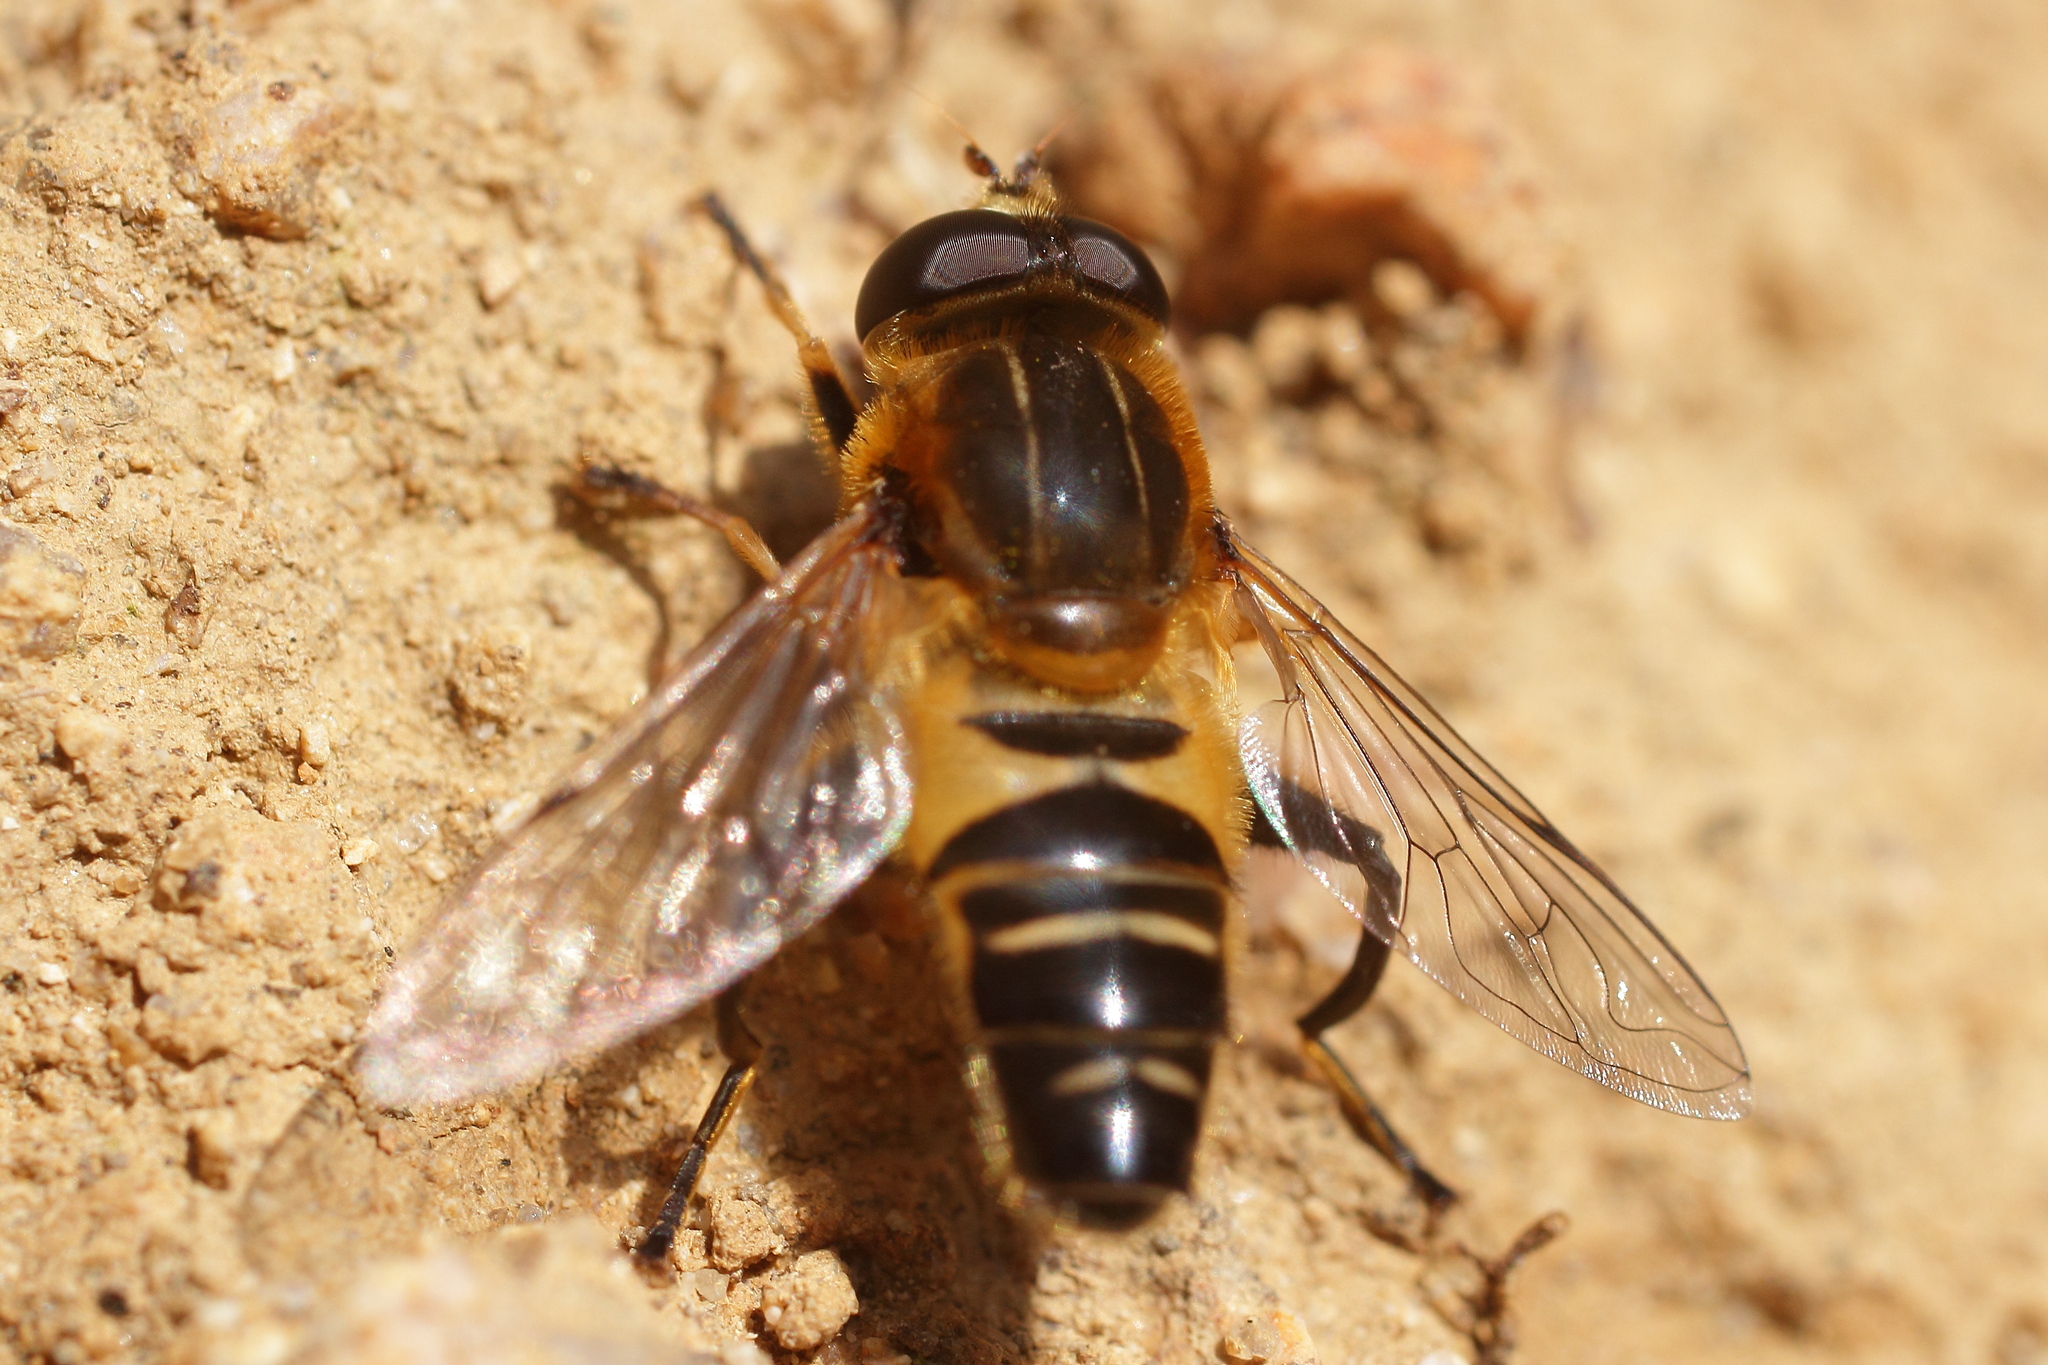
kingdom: Animalia
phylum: Arthropoda
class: Insecta
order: Diptera
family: Syrphidae
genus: Helophilus
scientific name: Helophilus eristaloideus
